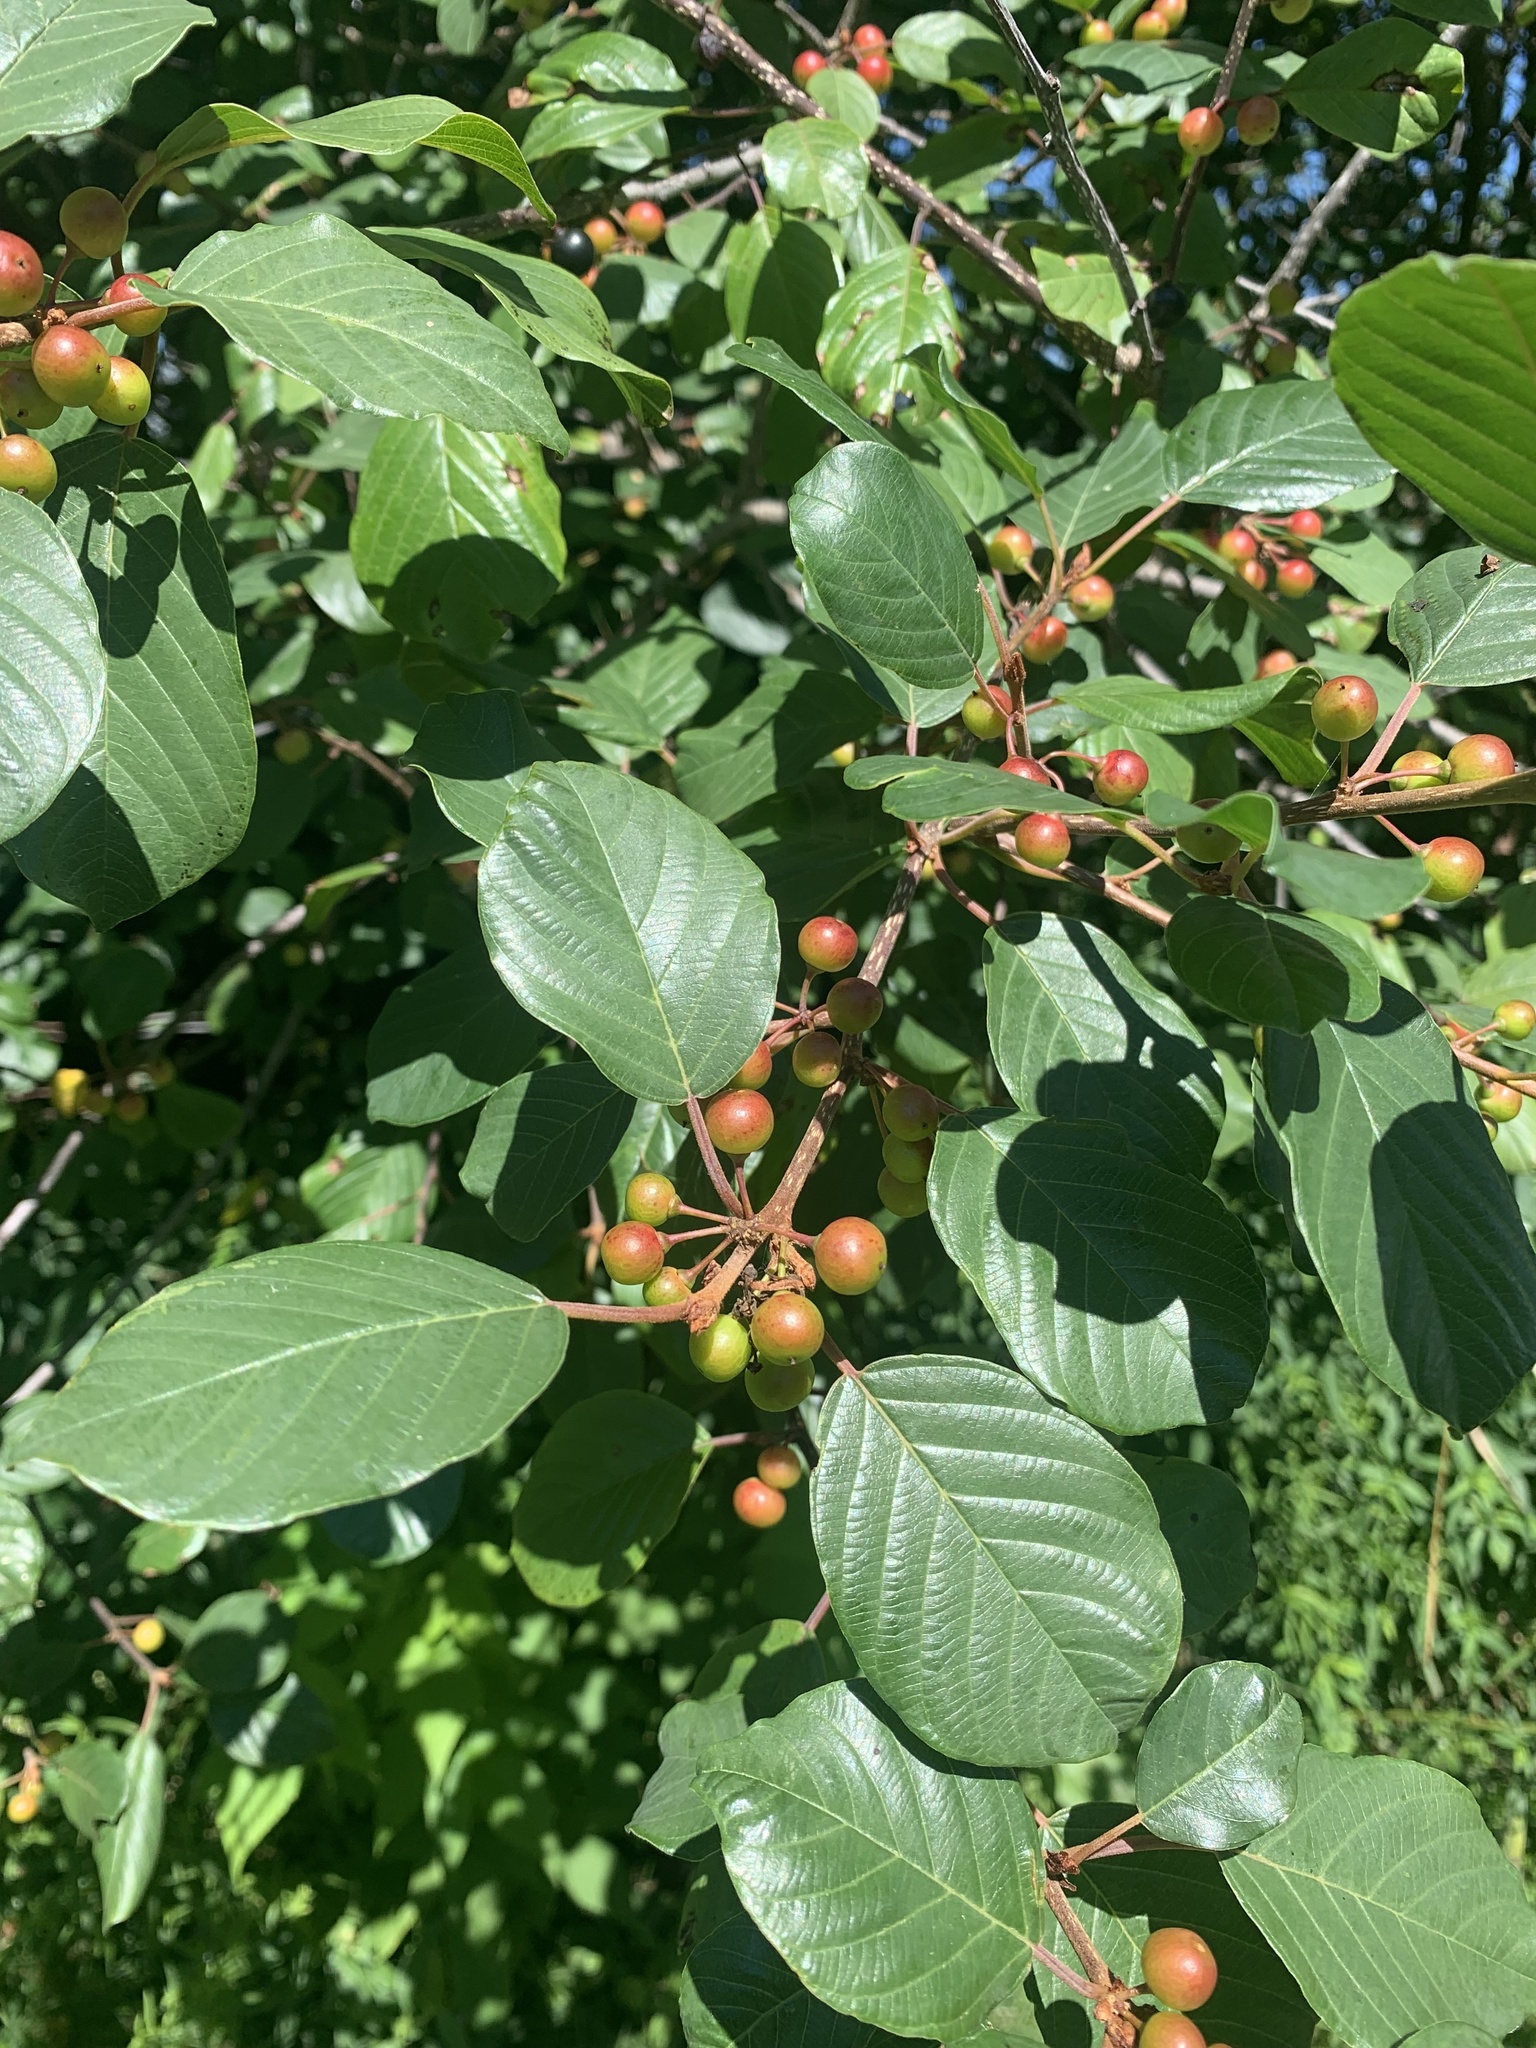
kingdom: Plantae
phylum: Tracheophyta
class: Magnoliopsida
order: Rosales
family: Rhamnaceae
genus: Frangula
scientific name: Frangula alnus
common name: Alder buckthorn
